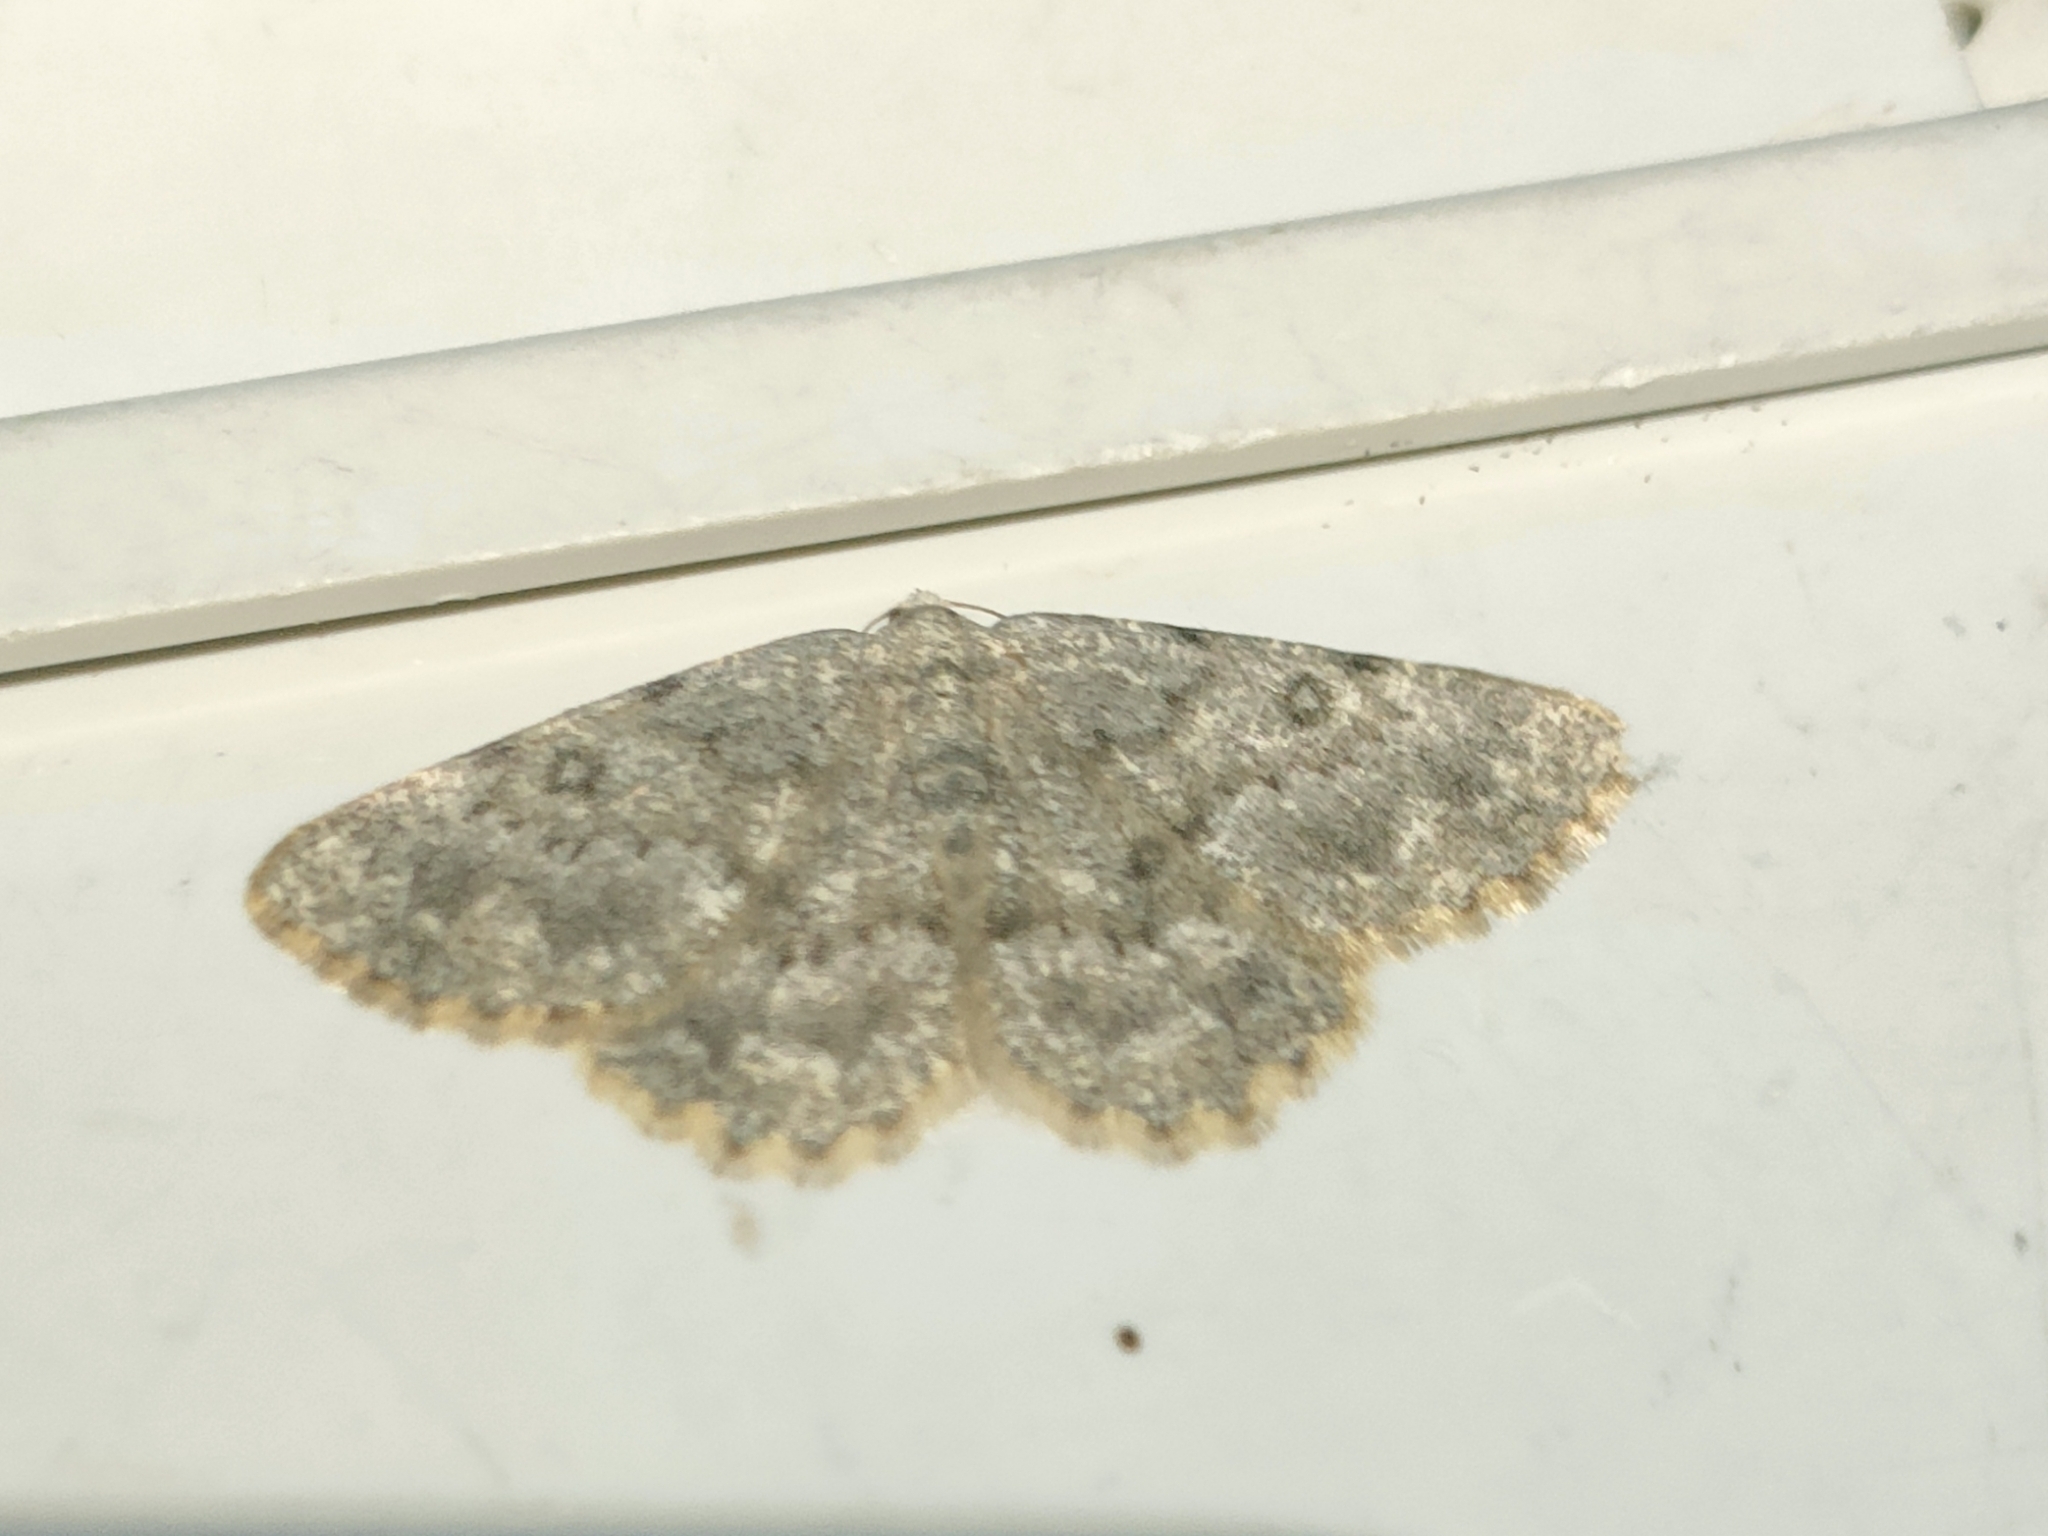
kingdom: Animalia
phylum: Arthropoda
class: Insecta
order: Lepidoptera
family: Geometridae
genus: Charissa
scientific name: Charissa mucidaria
